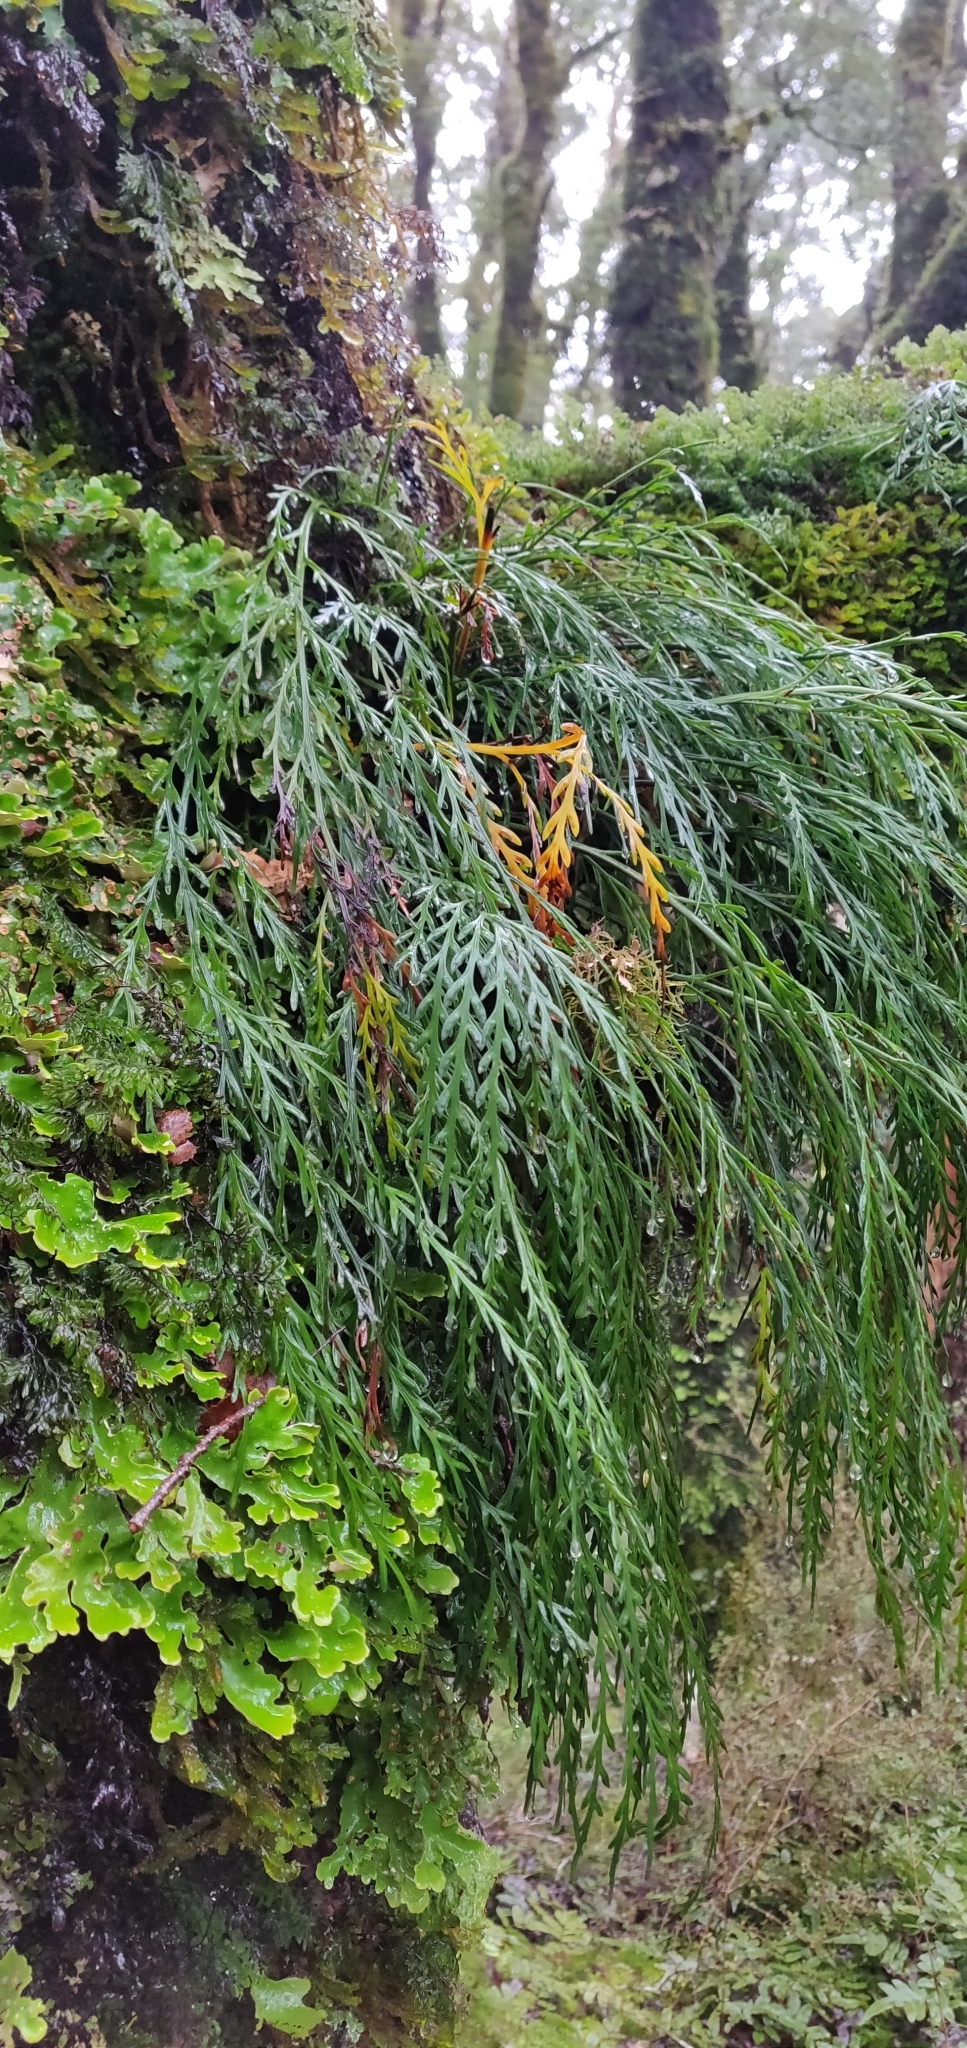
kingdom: Plantae
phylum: Tracheophyta
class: Polypodiopsida
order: Polypodiales
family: Aspleniaceae
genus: Asplenium
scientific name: Asplenium flaccidum
